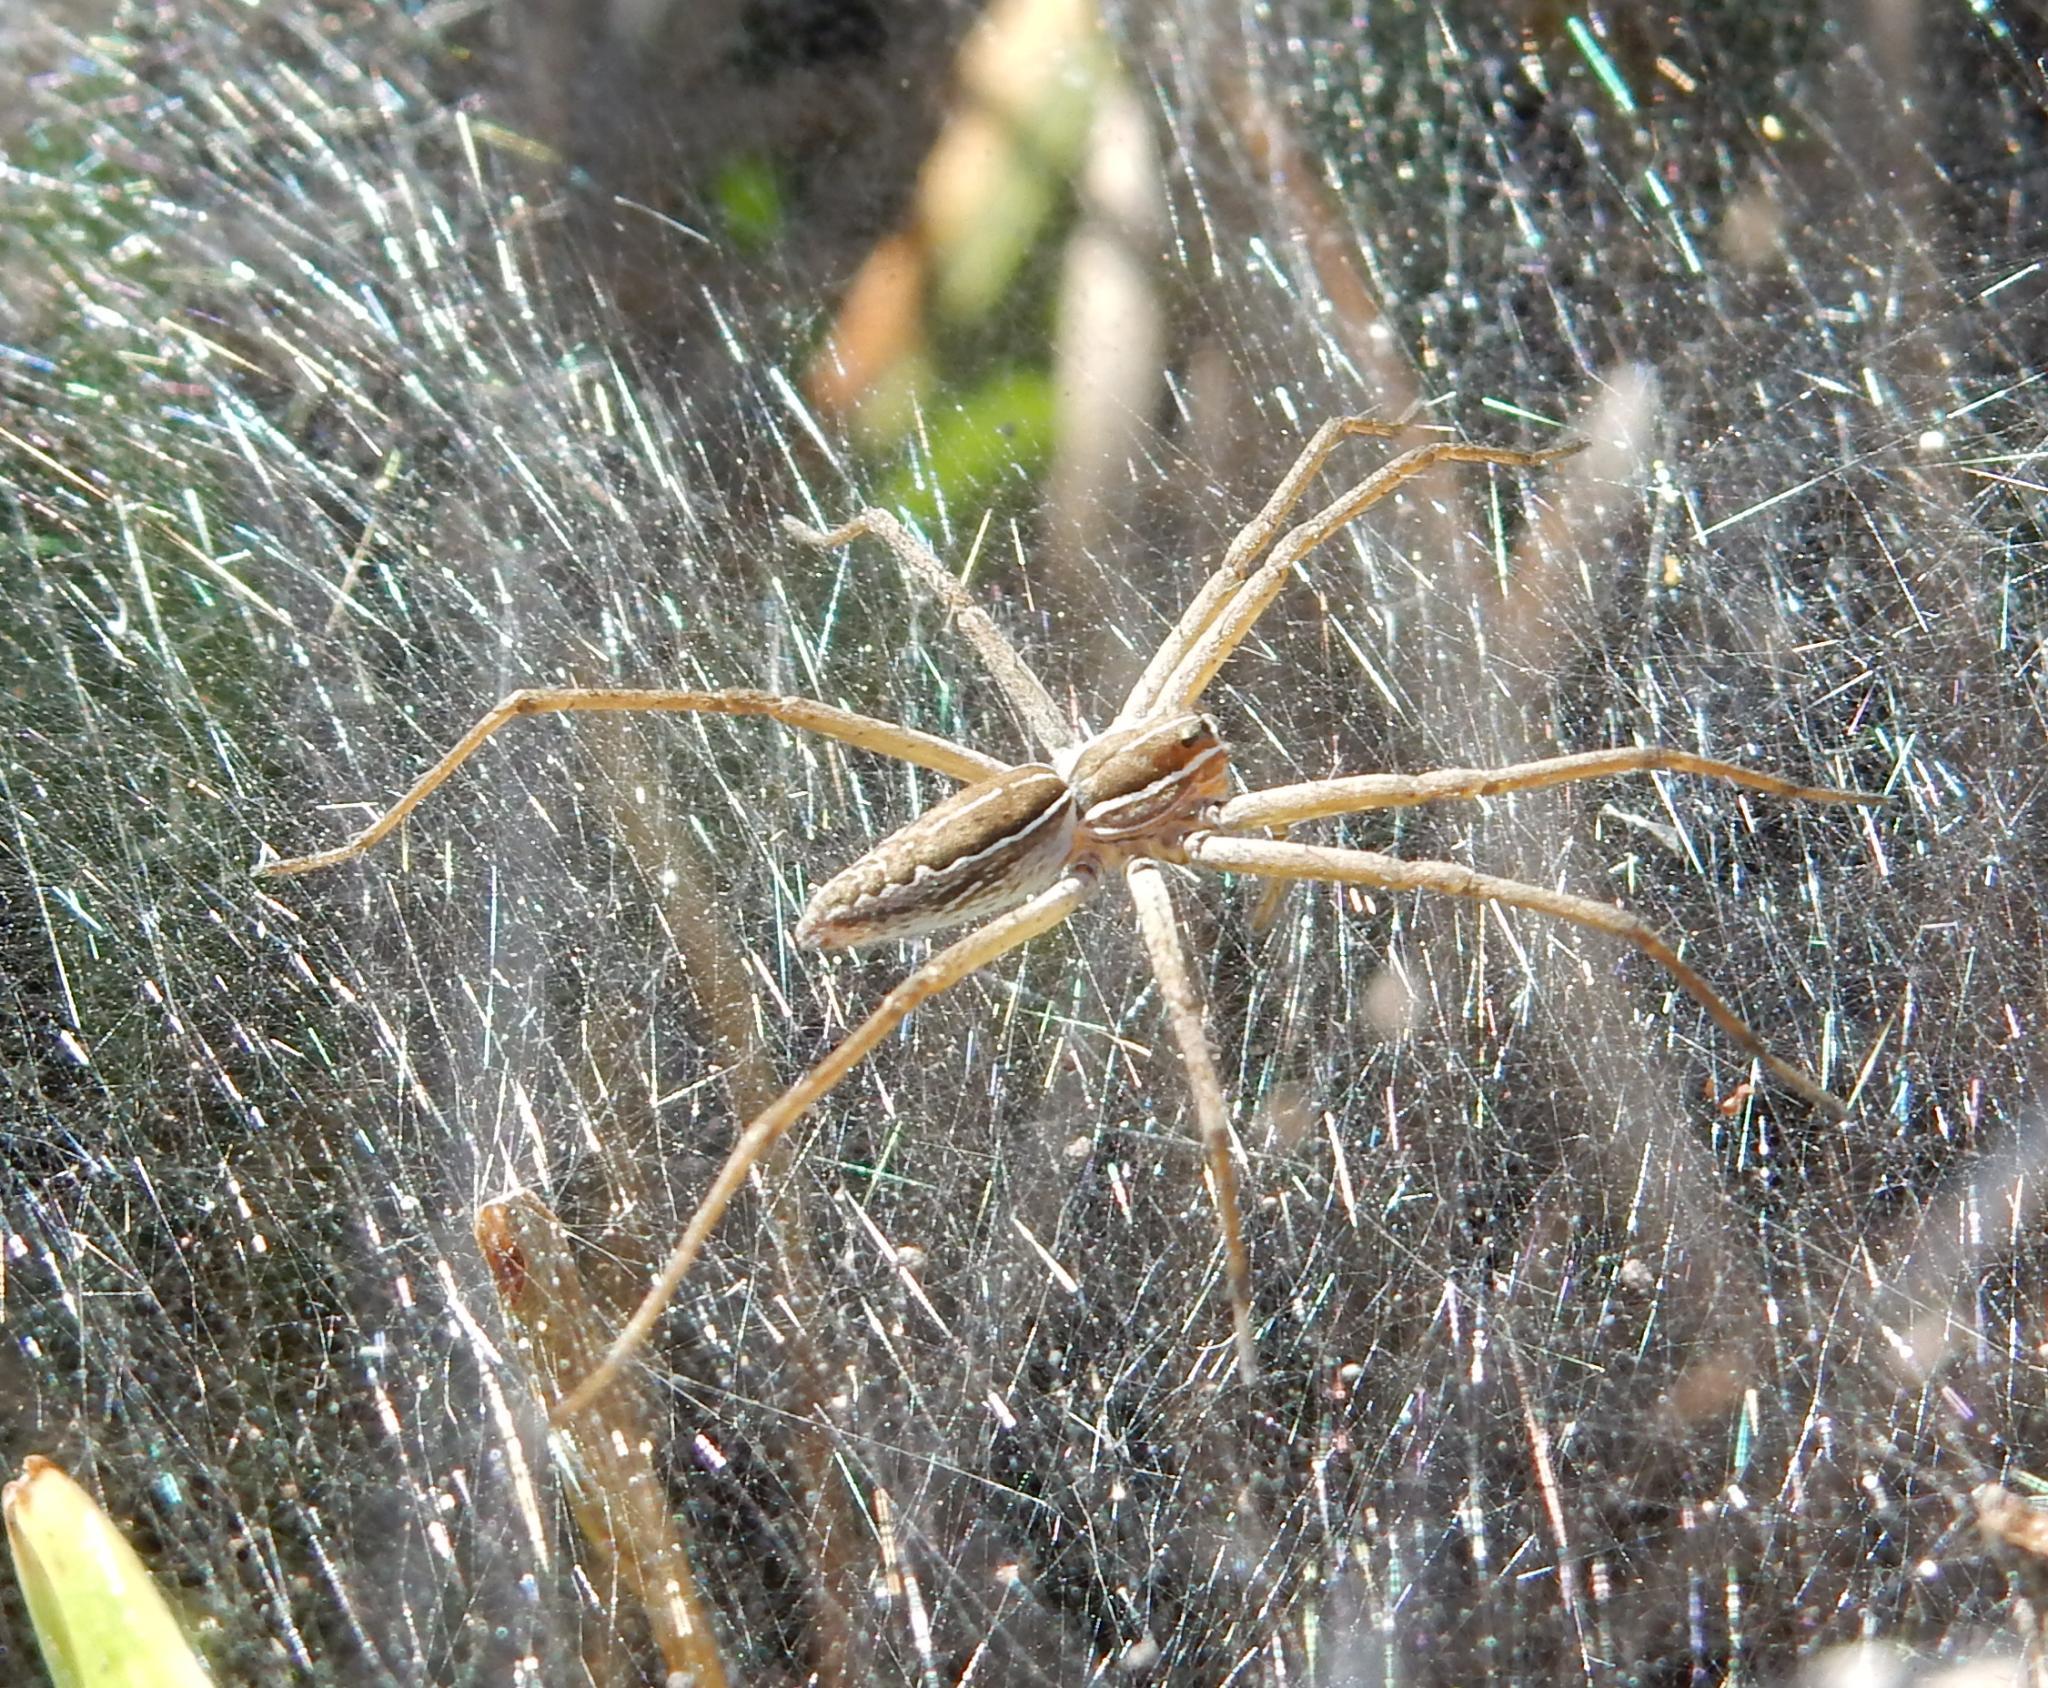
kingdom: Animalia
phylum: Arthropoda
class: Arachnida
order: Araneae
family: Pisauridae
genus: Euprosthenopsis
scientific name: Euprosthenopsis pulchella
